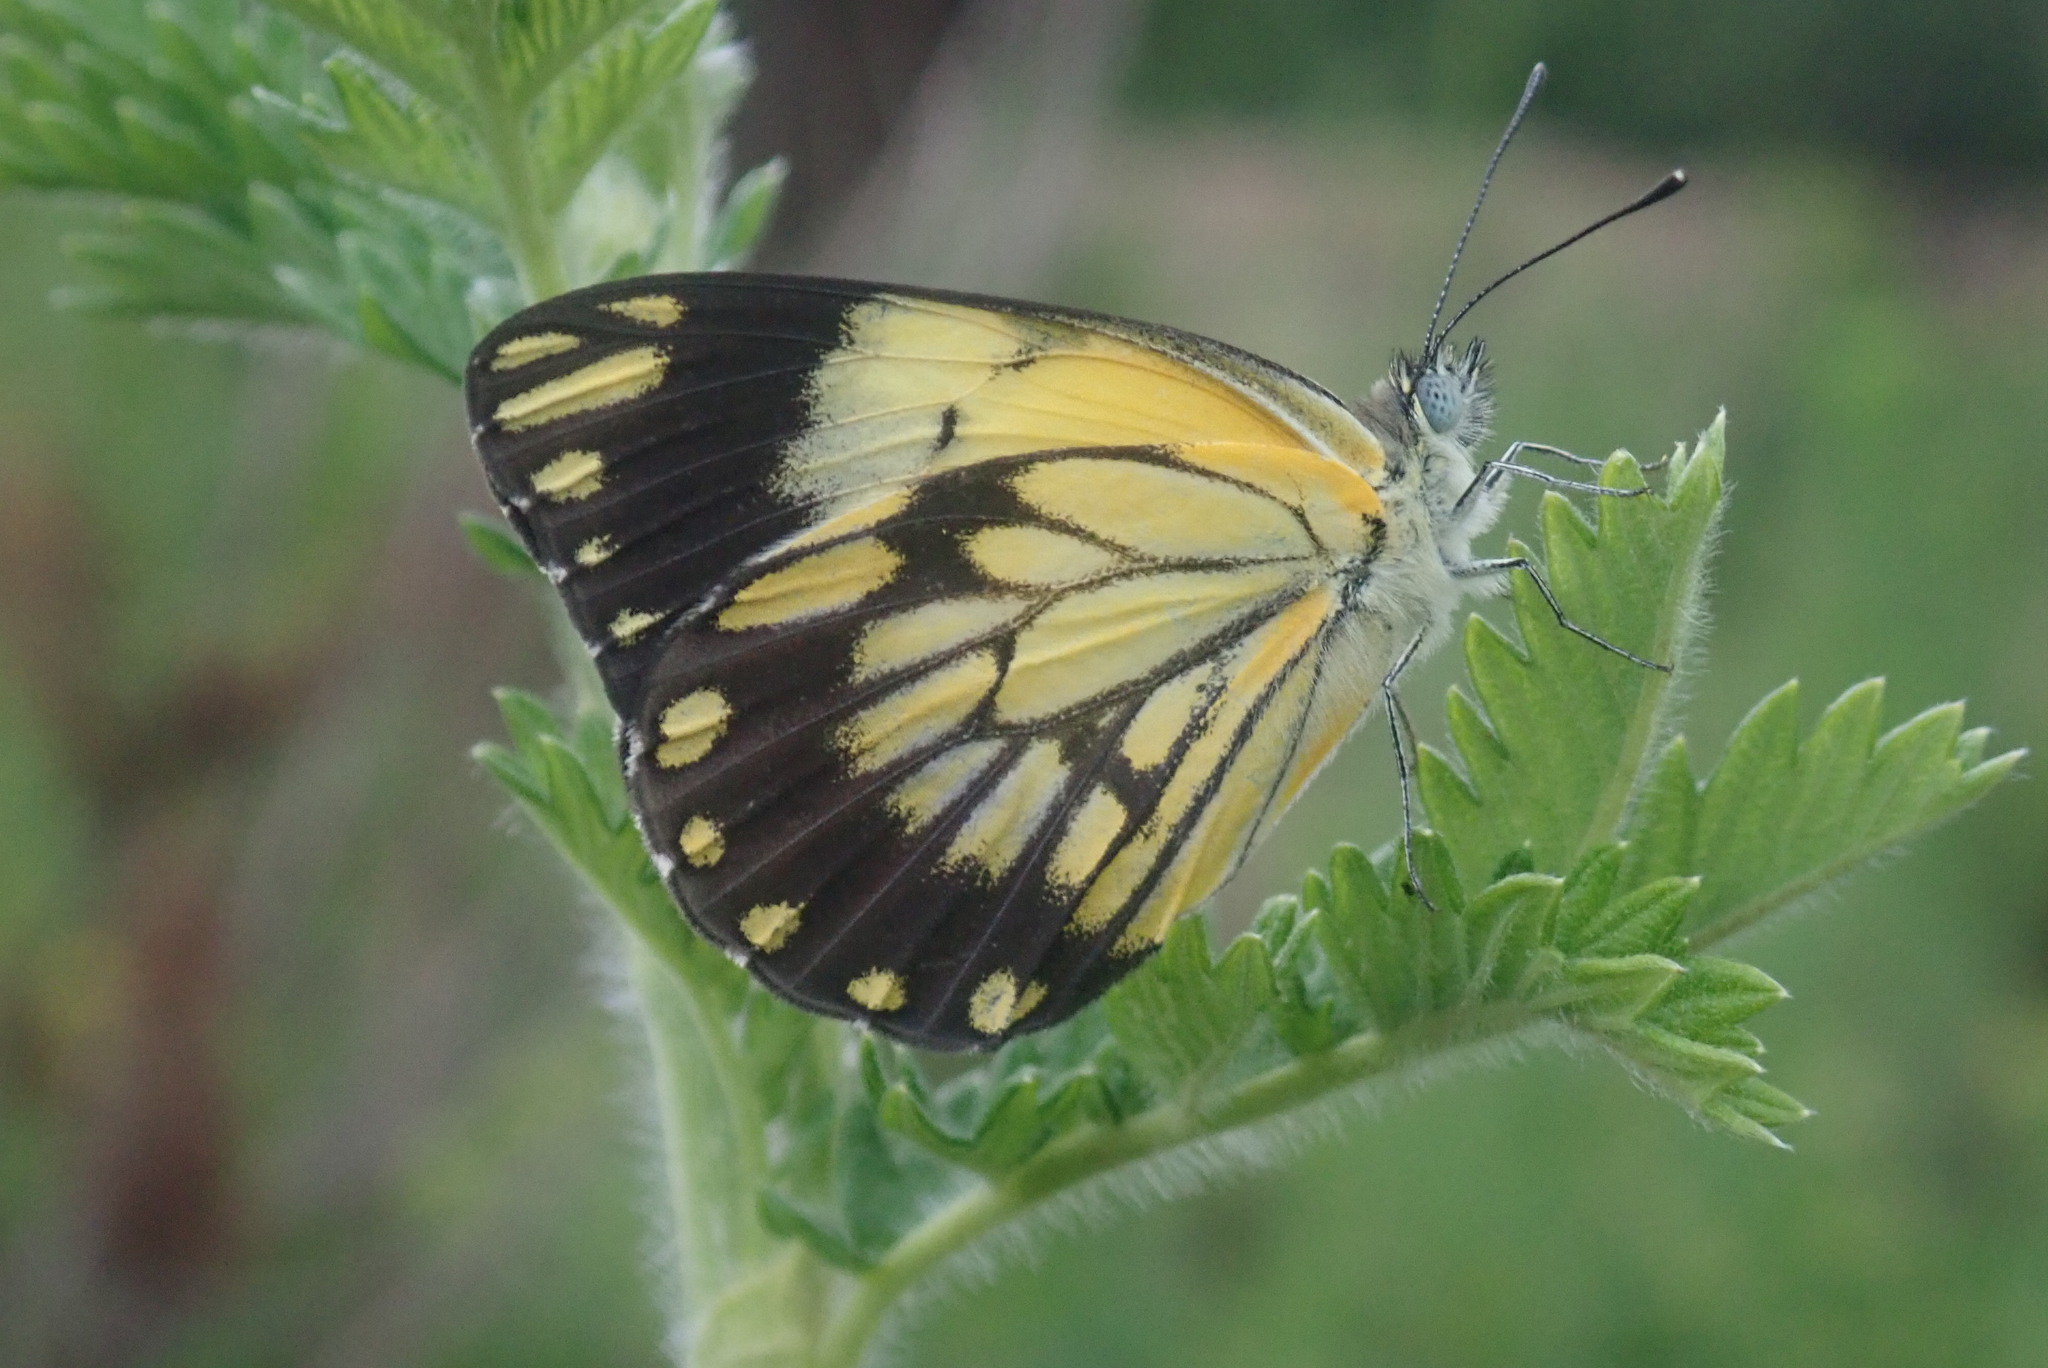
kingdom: Animalia
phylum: Arthropoda
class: Insecta
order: Lepidoptera
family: Pieridae
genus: Belenois
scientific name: Belenois creona
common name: African caper white
